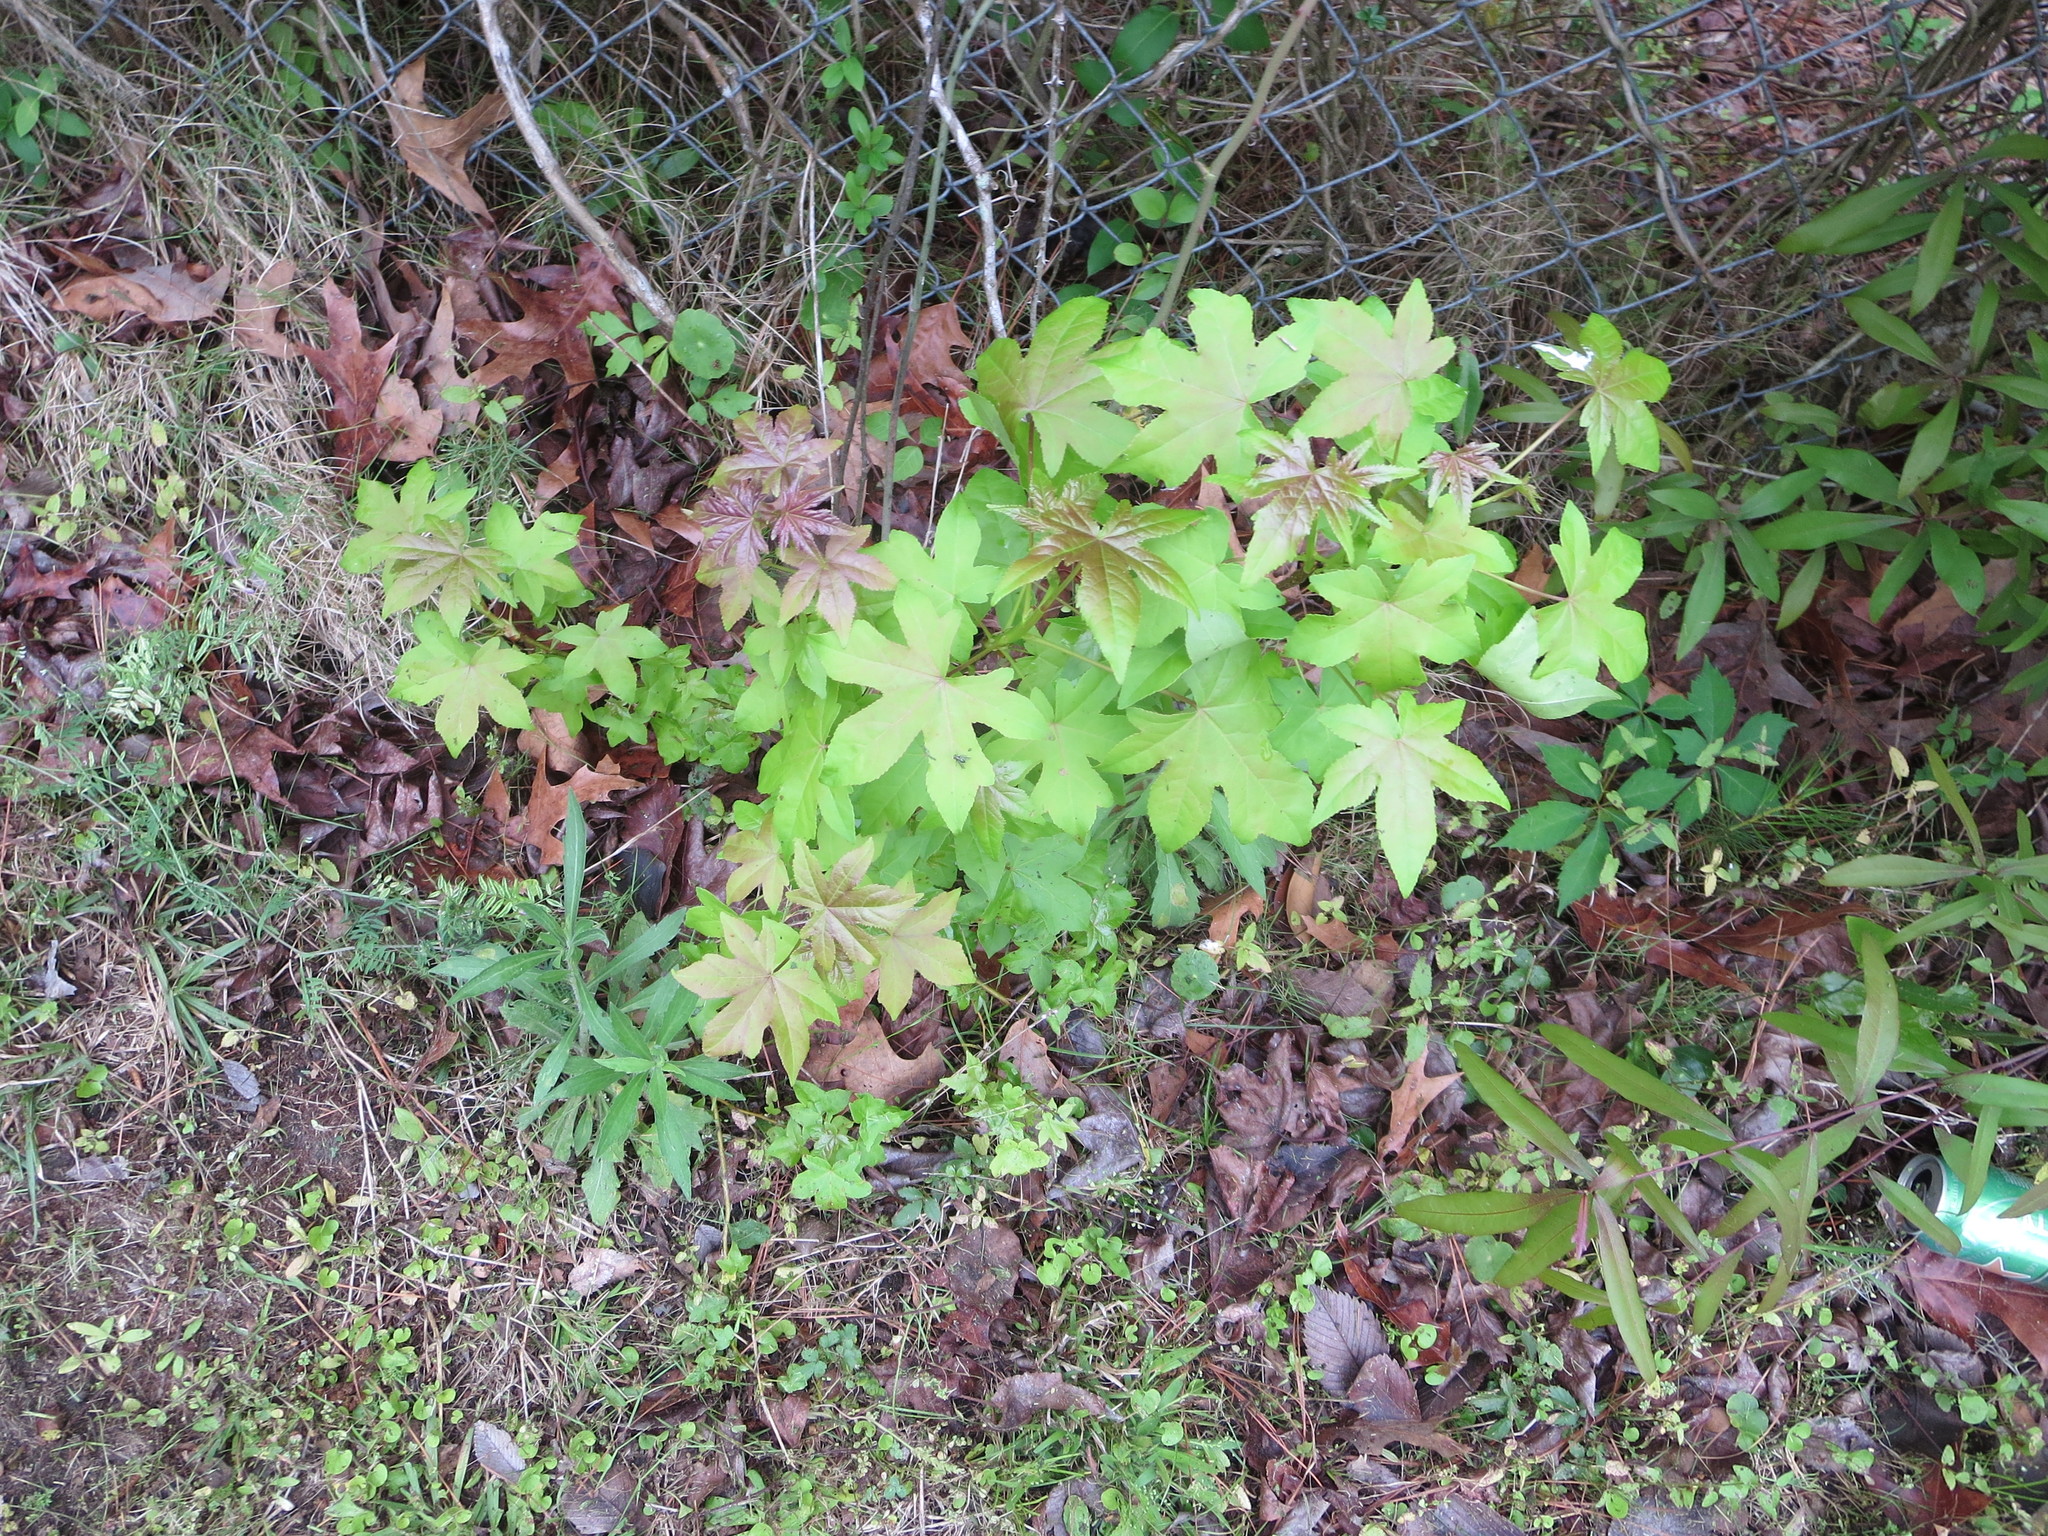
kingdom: Plantae
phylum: Tracheophyta
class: Magnoliopsida
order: Saxifragales
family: Altingiaceae
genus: Liquidambar
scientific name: Liquidambar styraciflua
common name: Sweet gum
